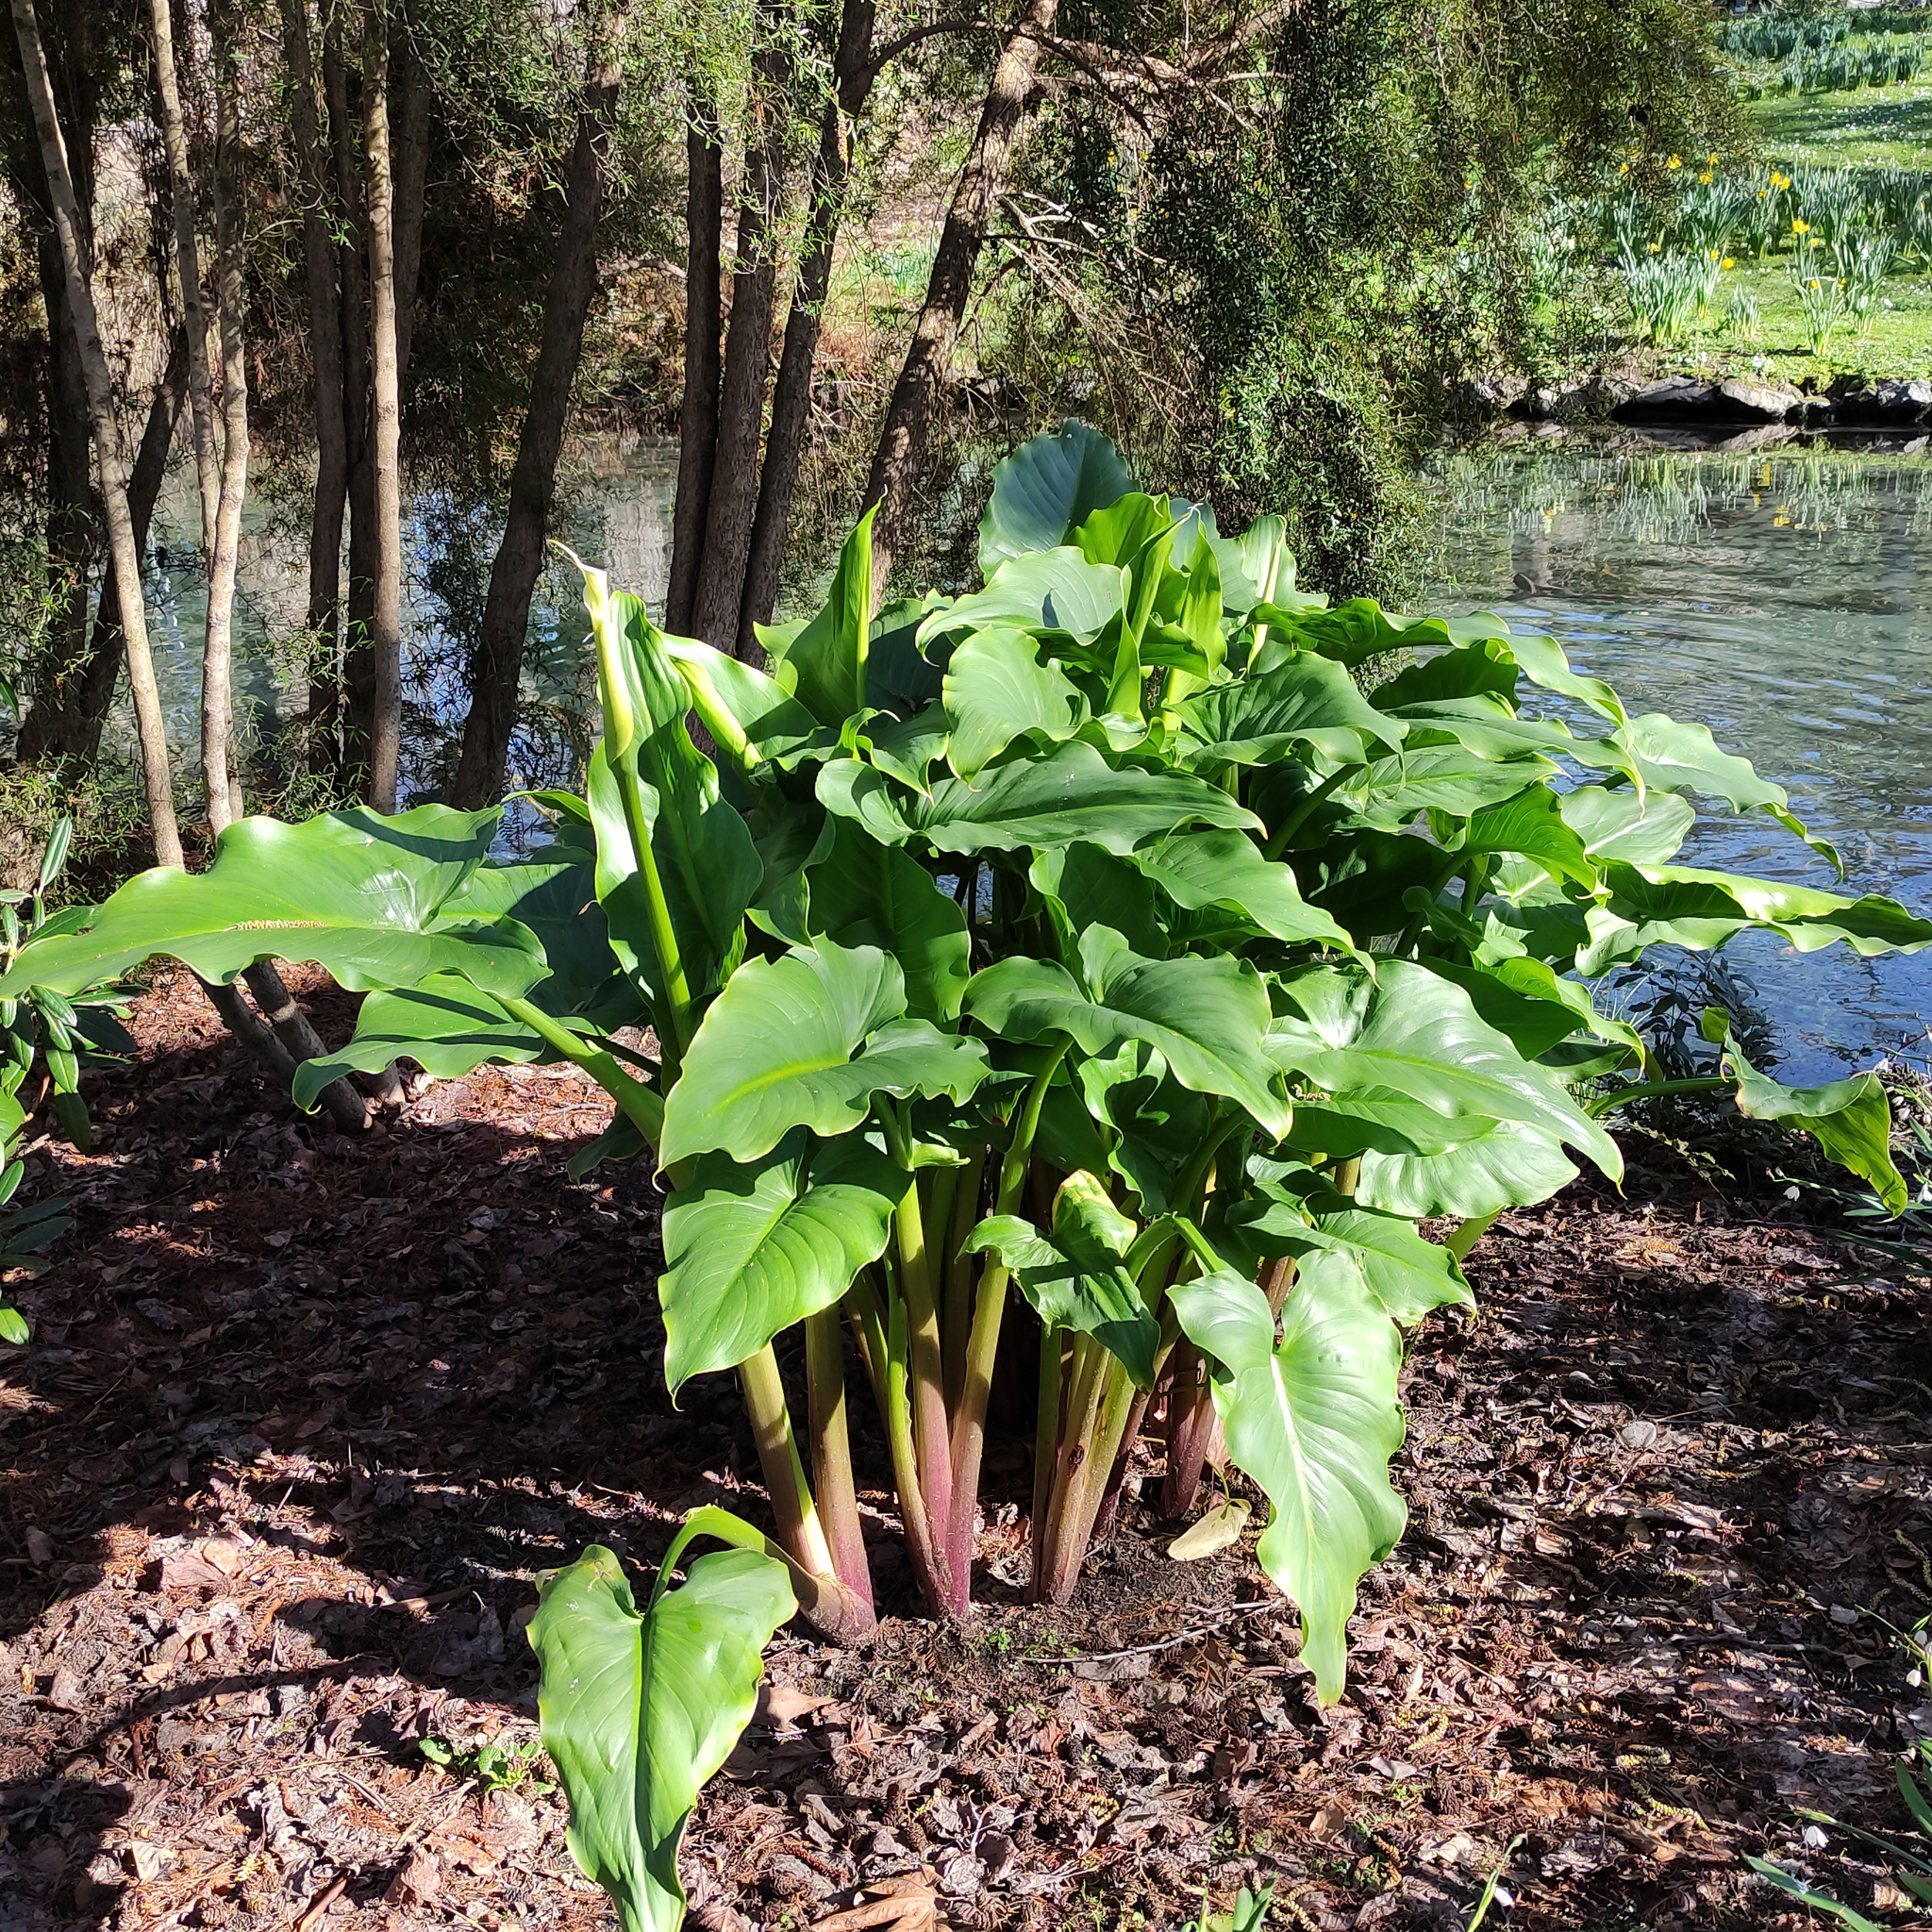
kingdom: Plantae
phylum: Tracheophyta
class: Liliopsida
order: Alismatales
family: Araceae
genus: Zantedeschia
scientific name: Zantedeschia aethiopica
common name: Altar-lily
